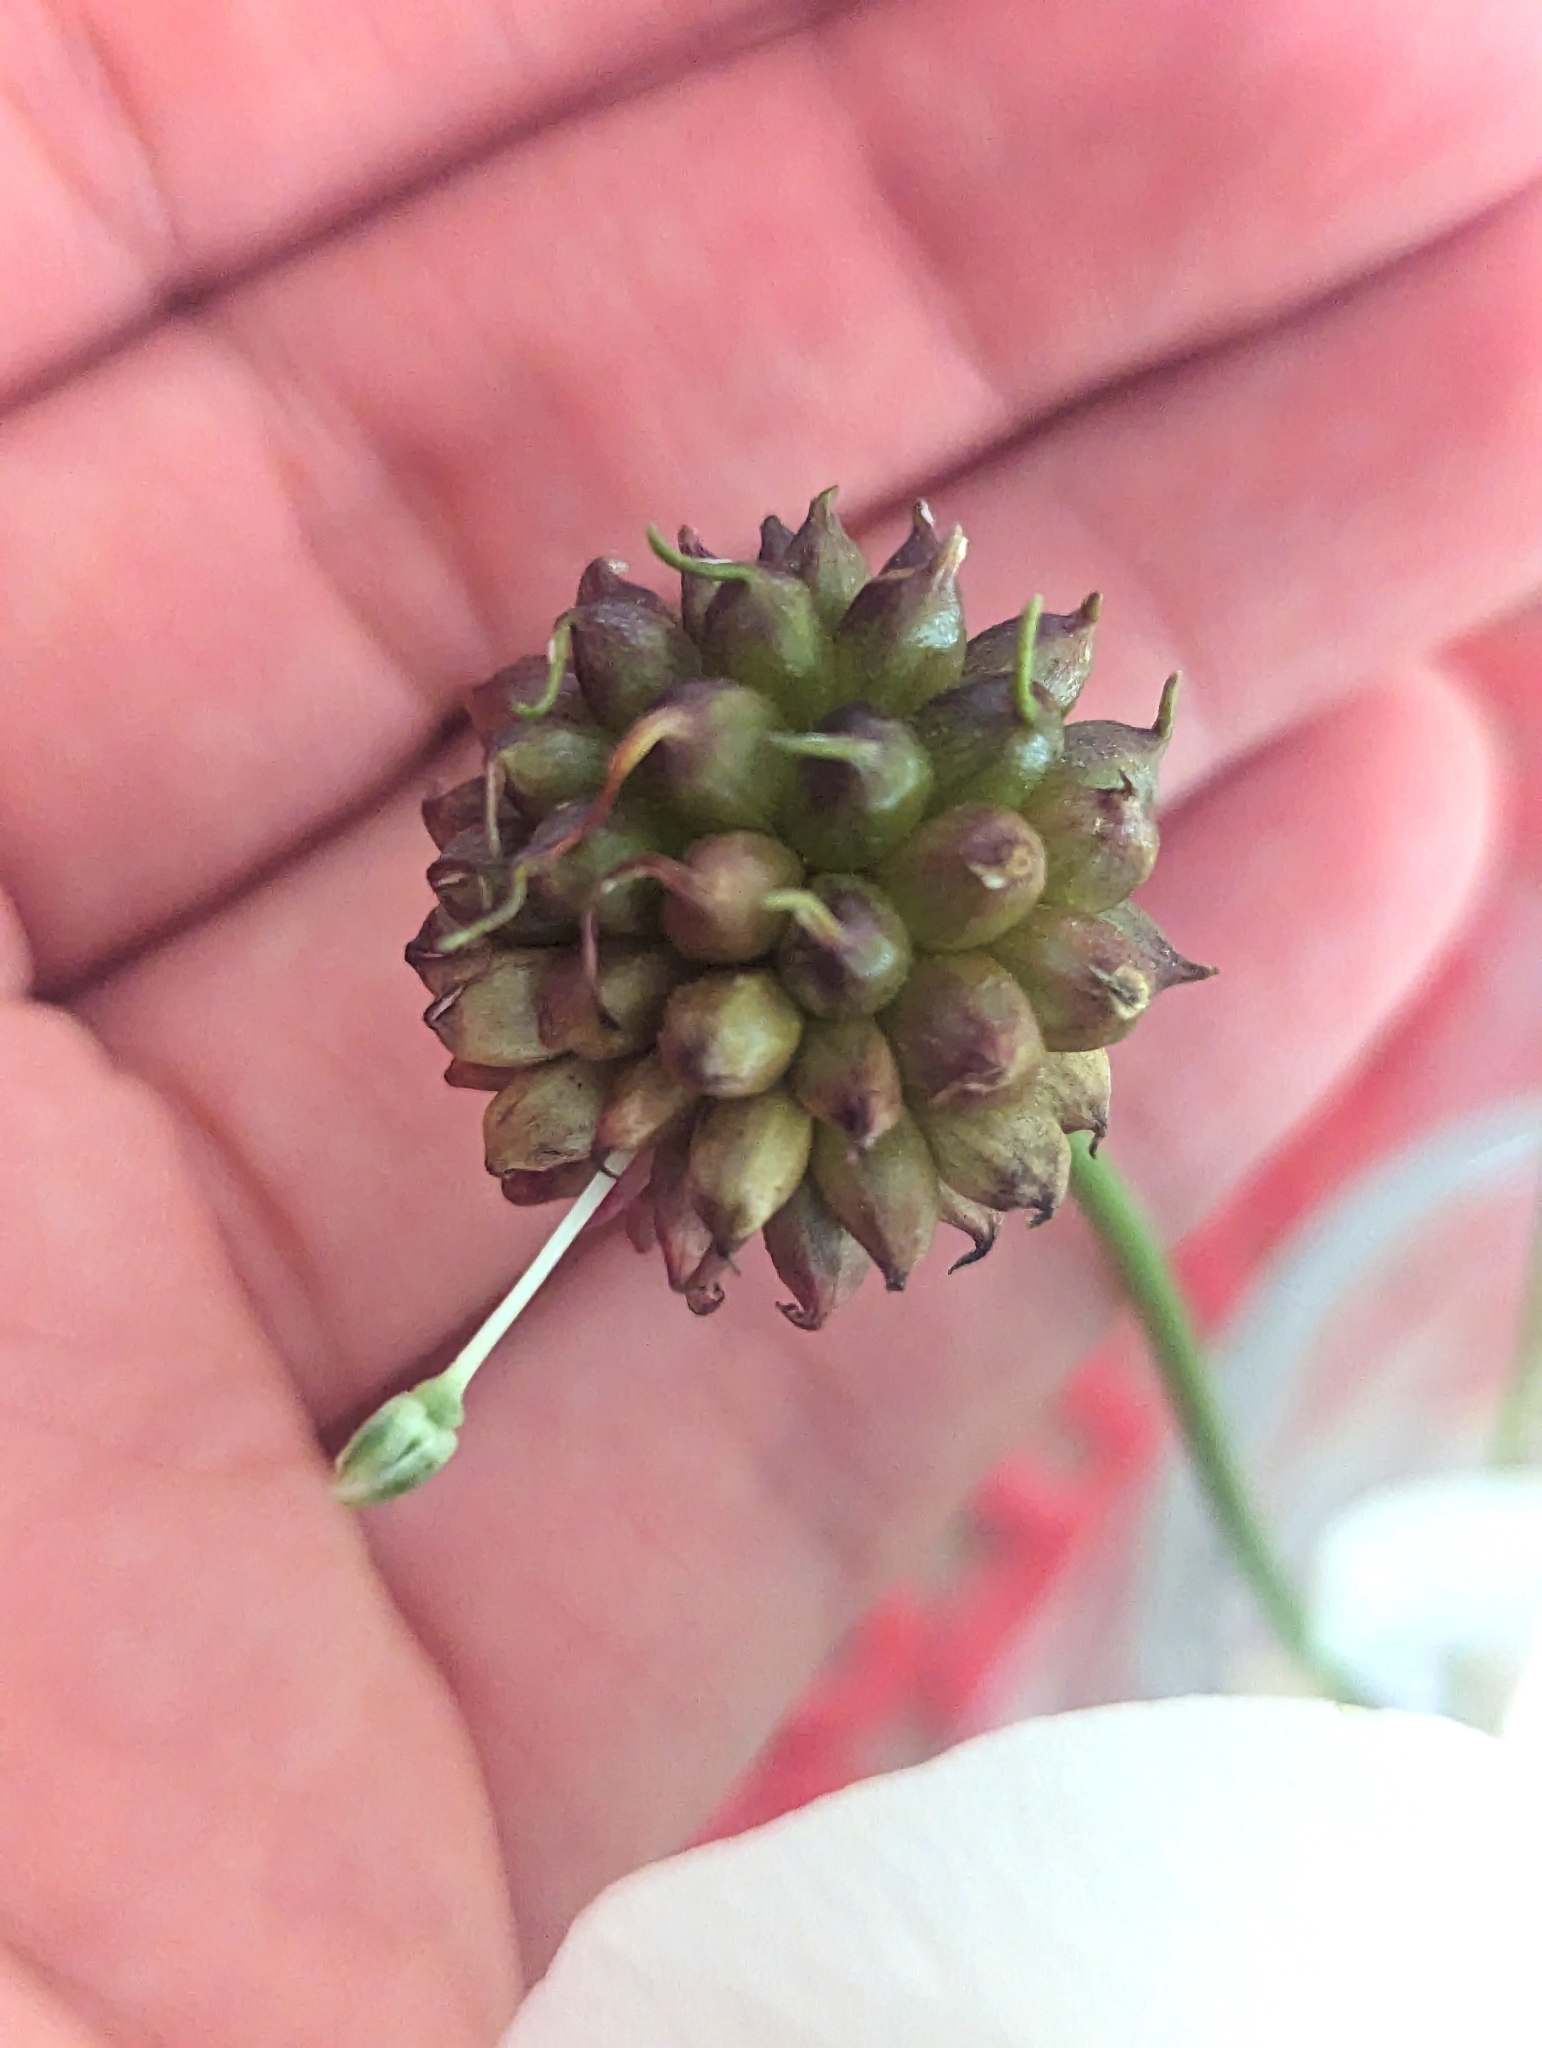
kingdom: Plantae
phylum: Tracheophyta
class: Liliopsida
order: Asparagales
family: Amaryllidaceae
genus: Allium
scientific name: Allium vineale
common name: Crow garlic
